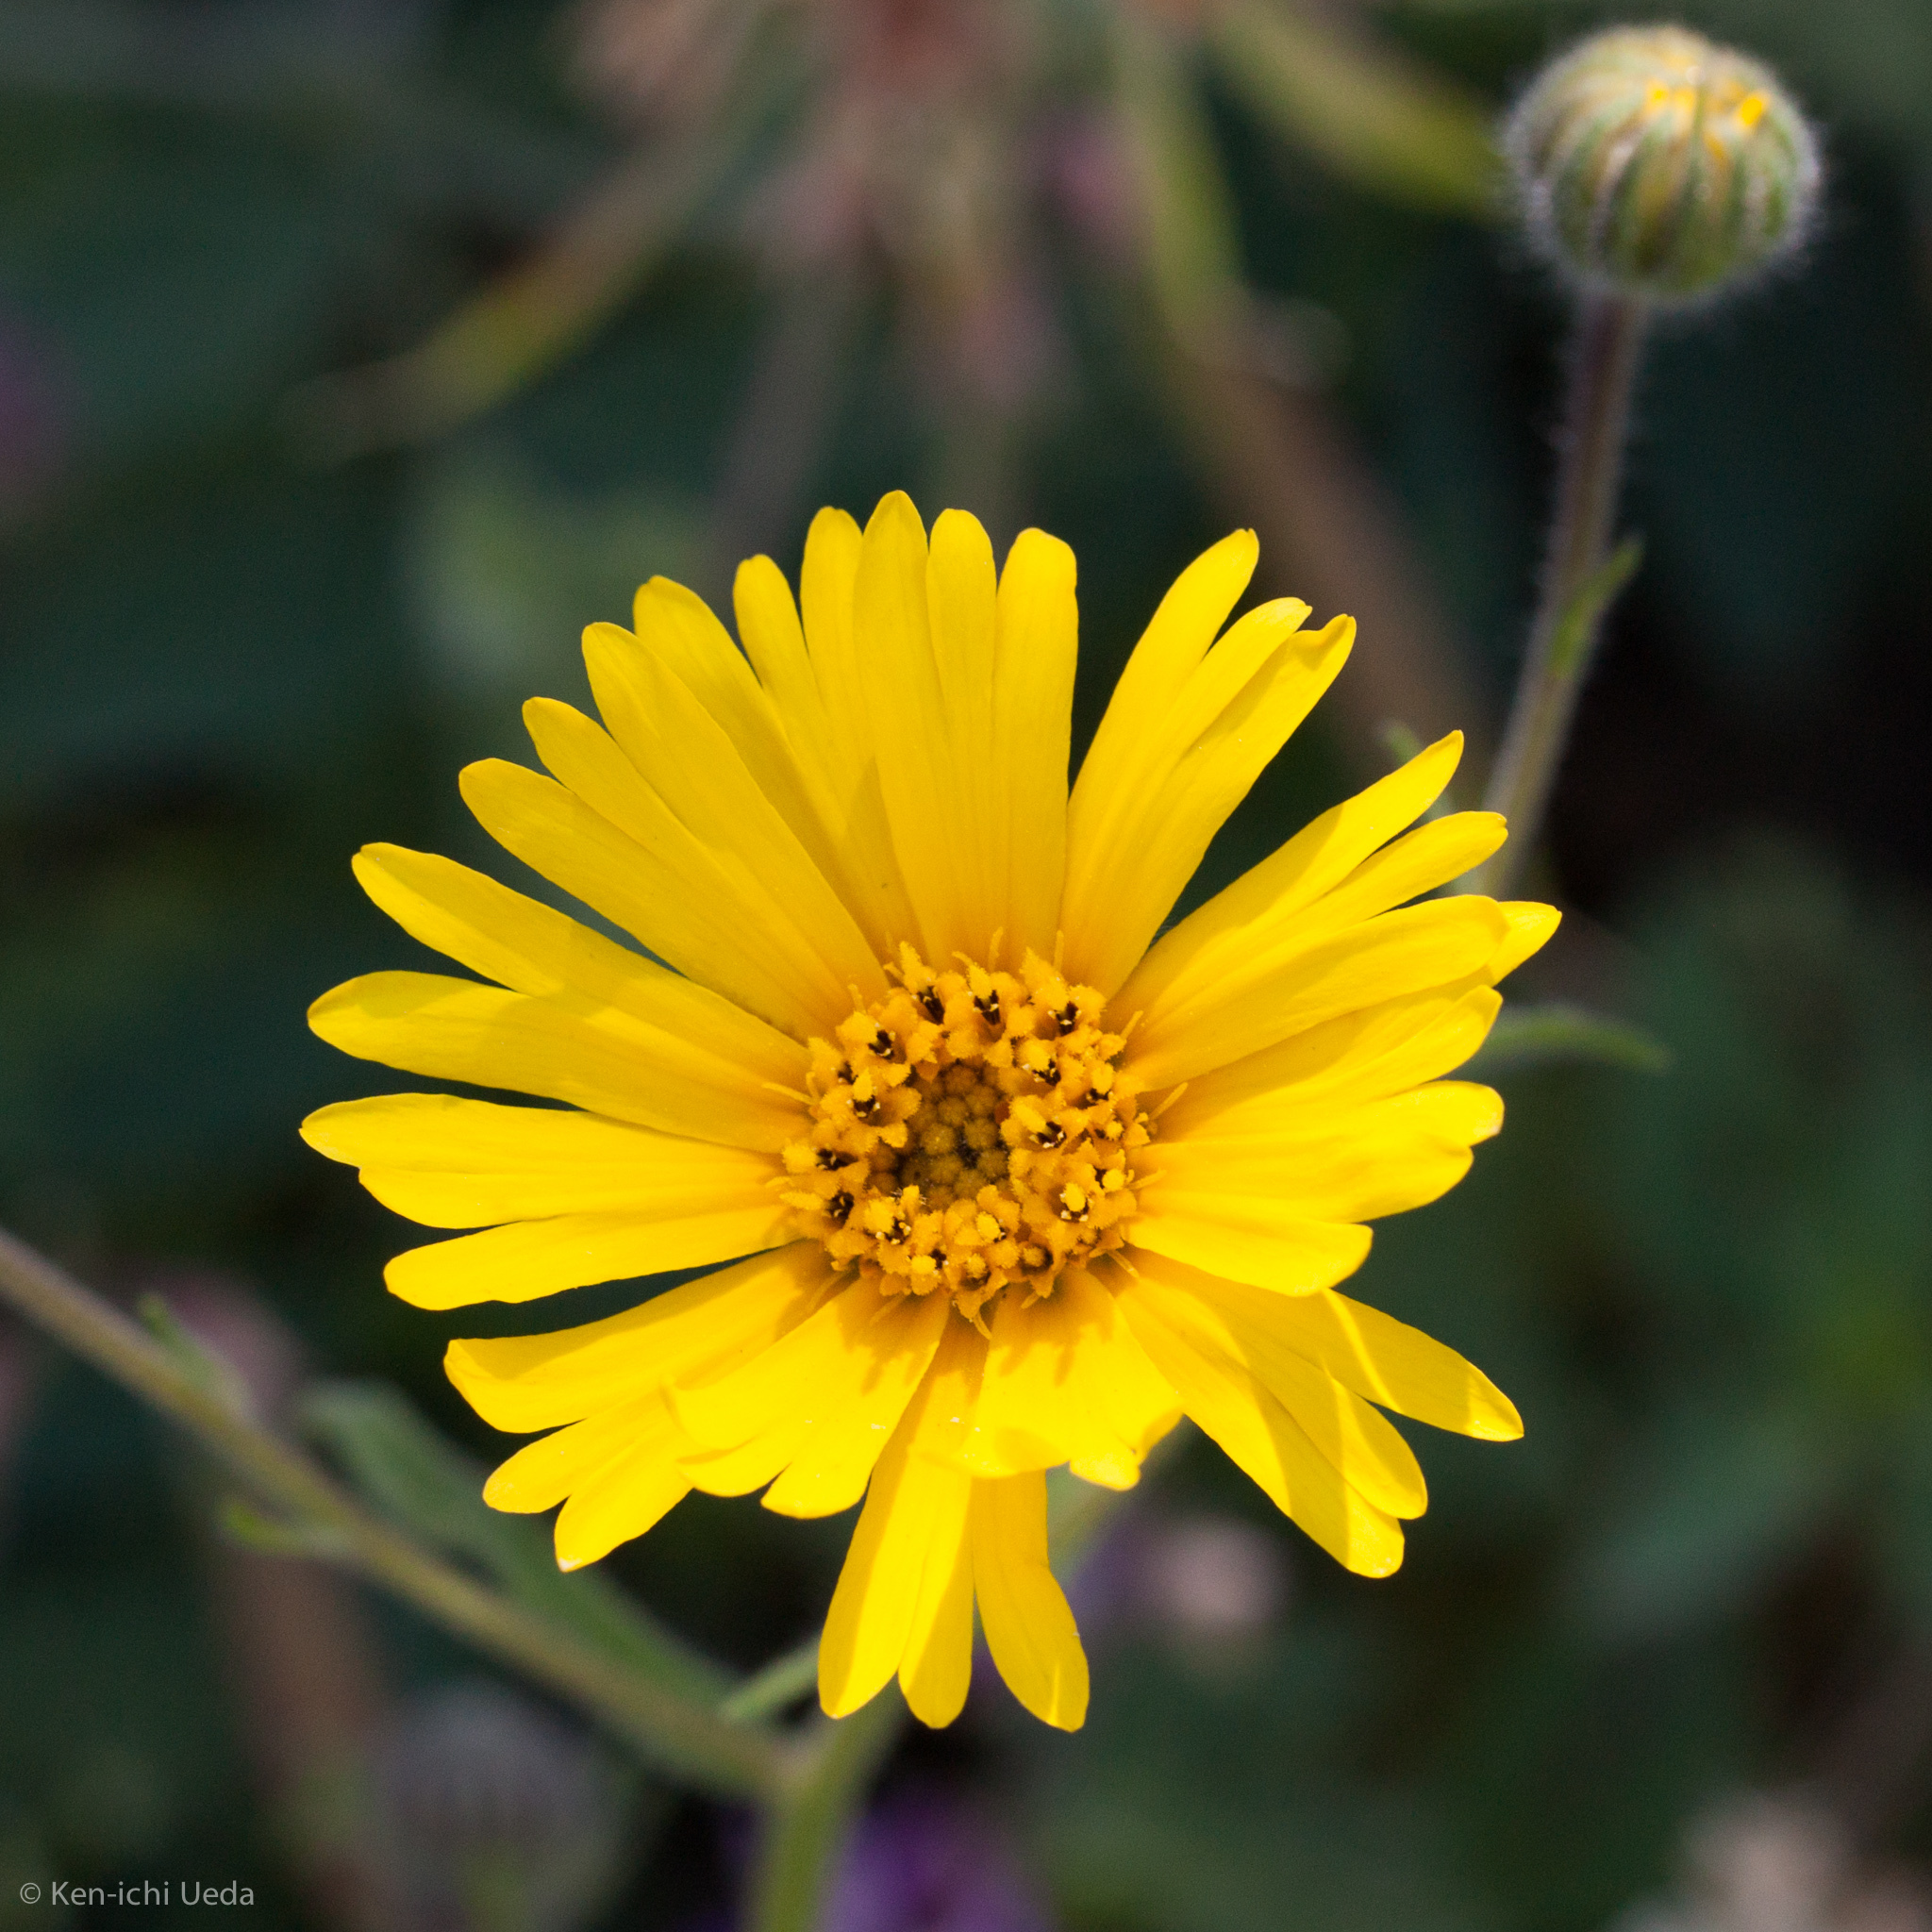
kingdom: Plantae
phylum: Tracheophyta
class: Magnoliopsida
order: Asterales
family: Asteraceae
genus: Madia
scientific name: Madia elegans
